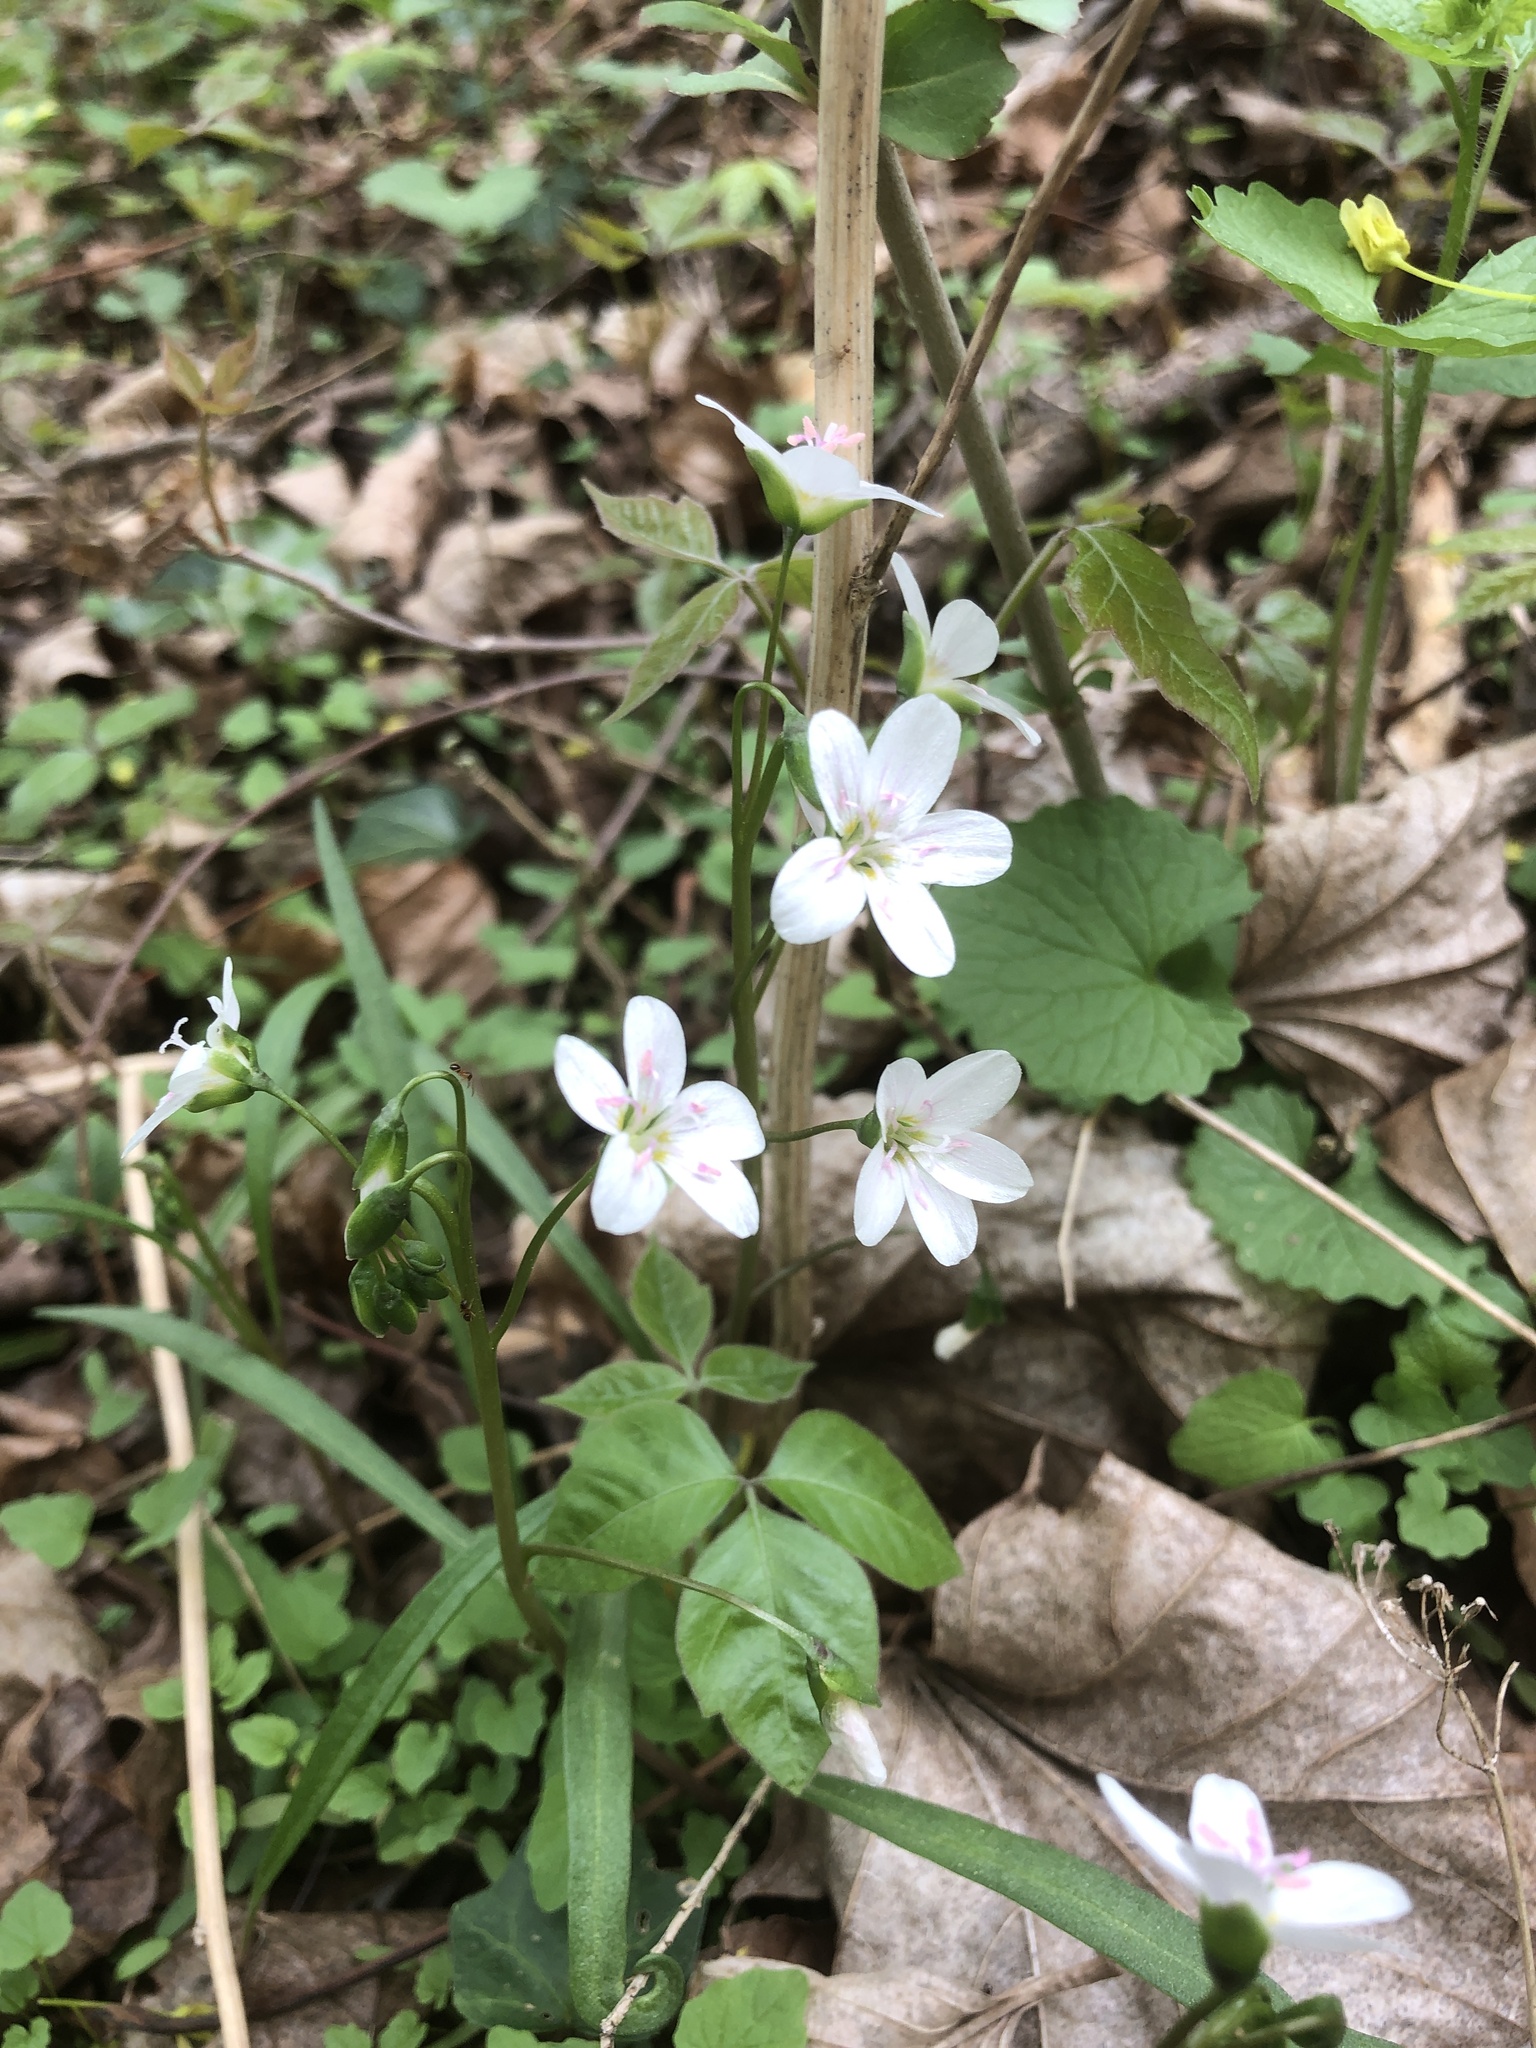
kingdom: Plantae
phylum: Tracheophyta
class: Magnoliopsida
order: Caryophyllales
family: Montiaceae
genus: Claytonia
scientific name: Claytonia virginica
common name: Virginia springbeauty
